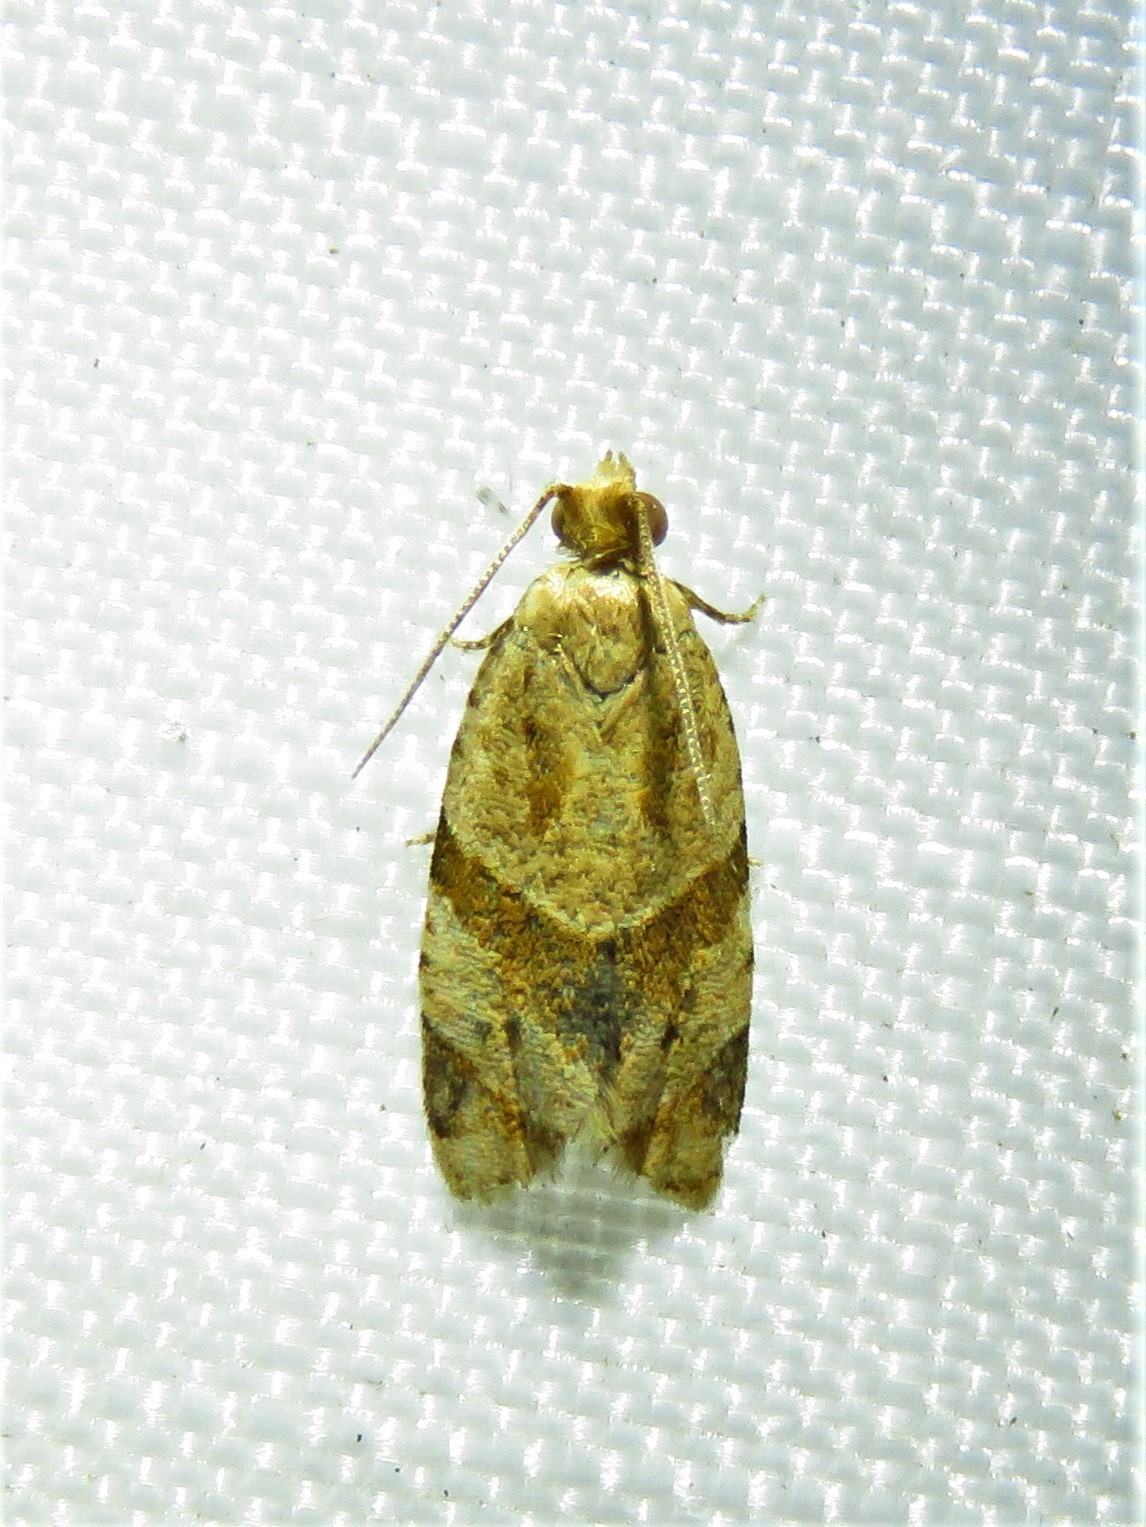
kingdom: Animalia
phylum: Arthropoda
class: Insecta
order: Lepidoptera
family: Tortricidae
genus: Clepsis
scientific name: Clepsis peritana
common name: Garden tortrix
